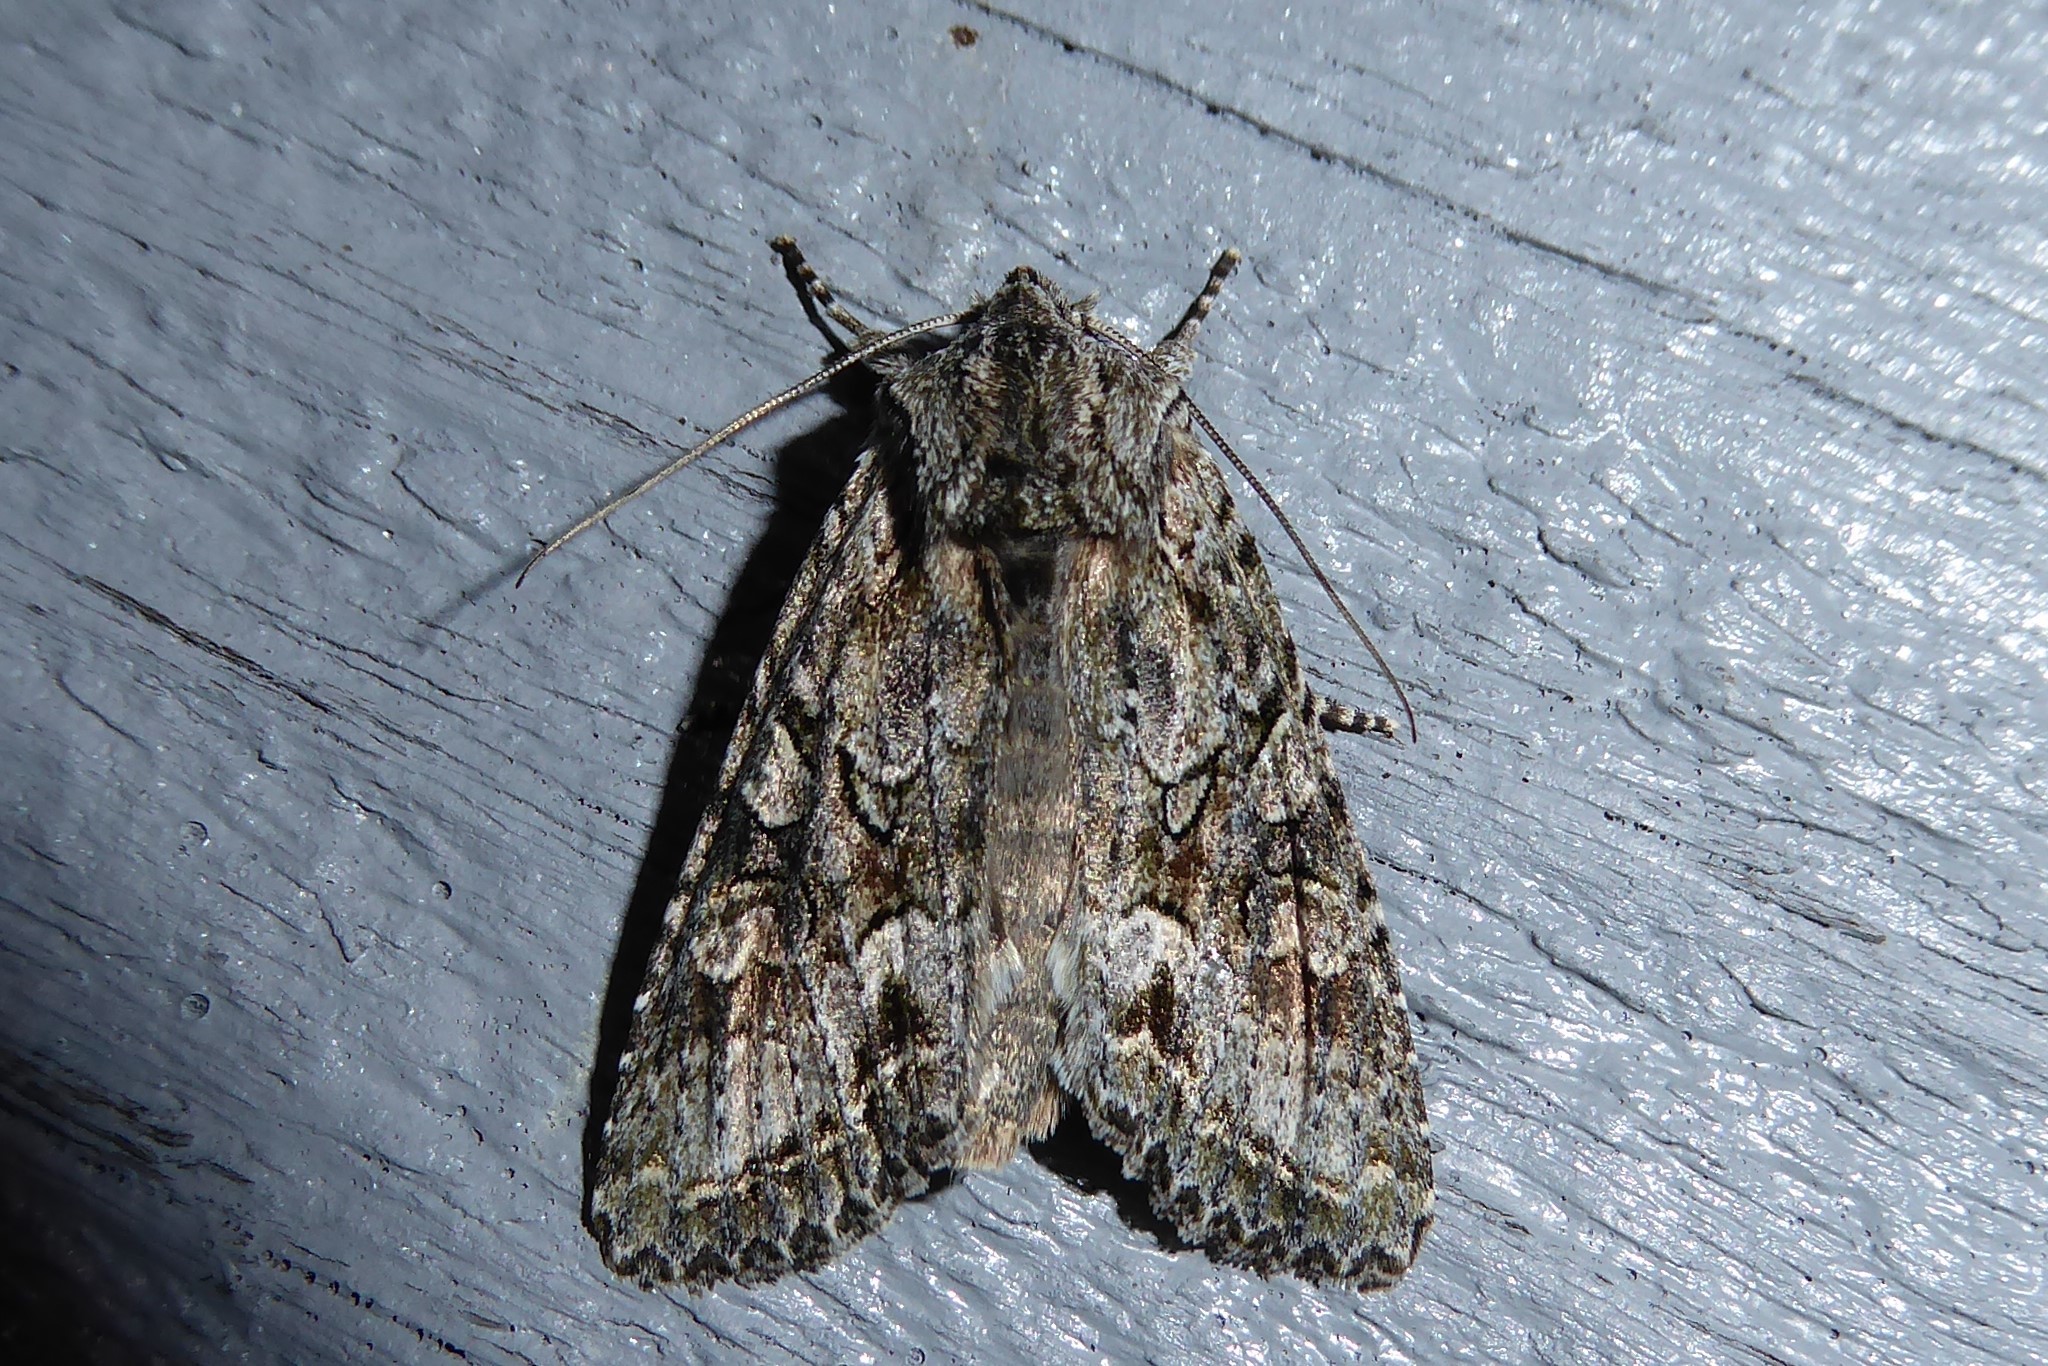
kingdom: Animalia
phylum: Arthropoda
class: Insecta
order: Lepidoptera
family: Noctuidae
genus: Ichneutica
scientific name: Ichneutica mutans
